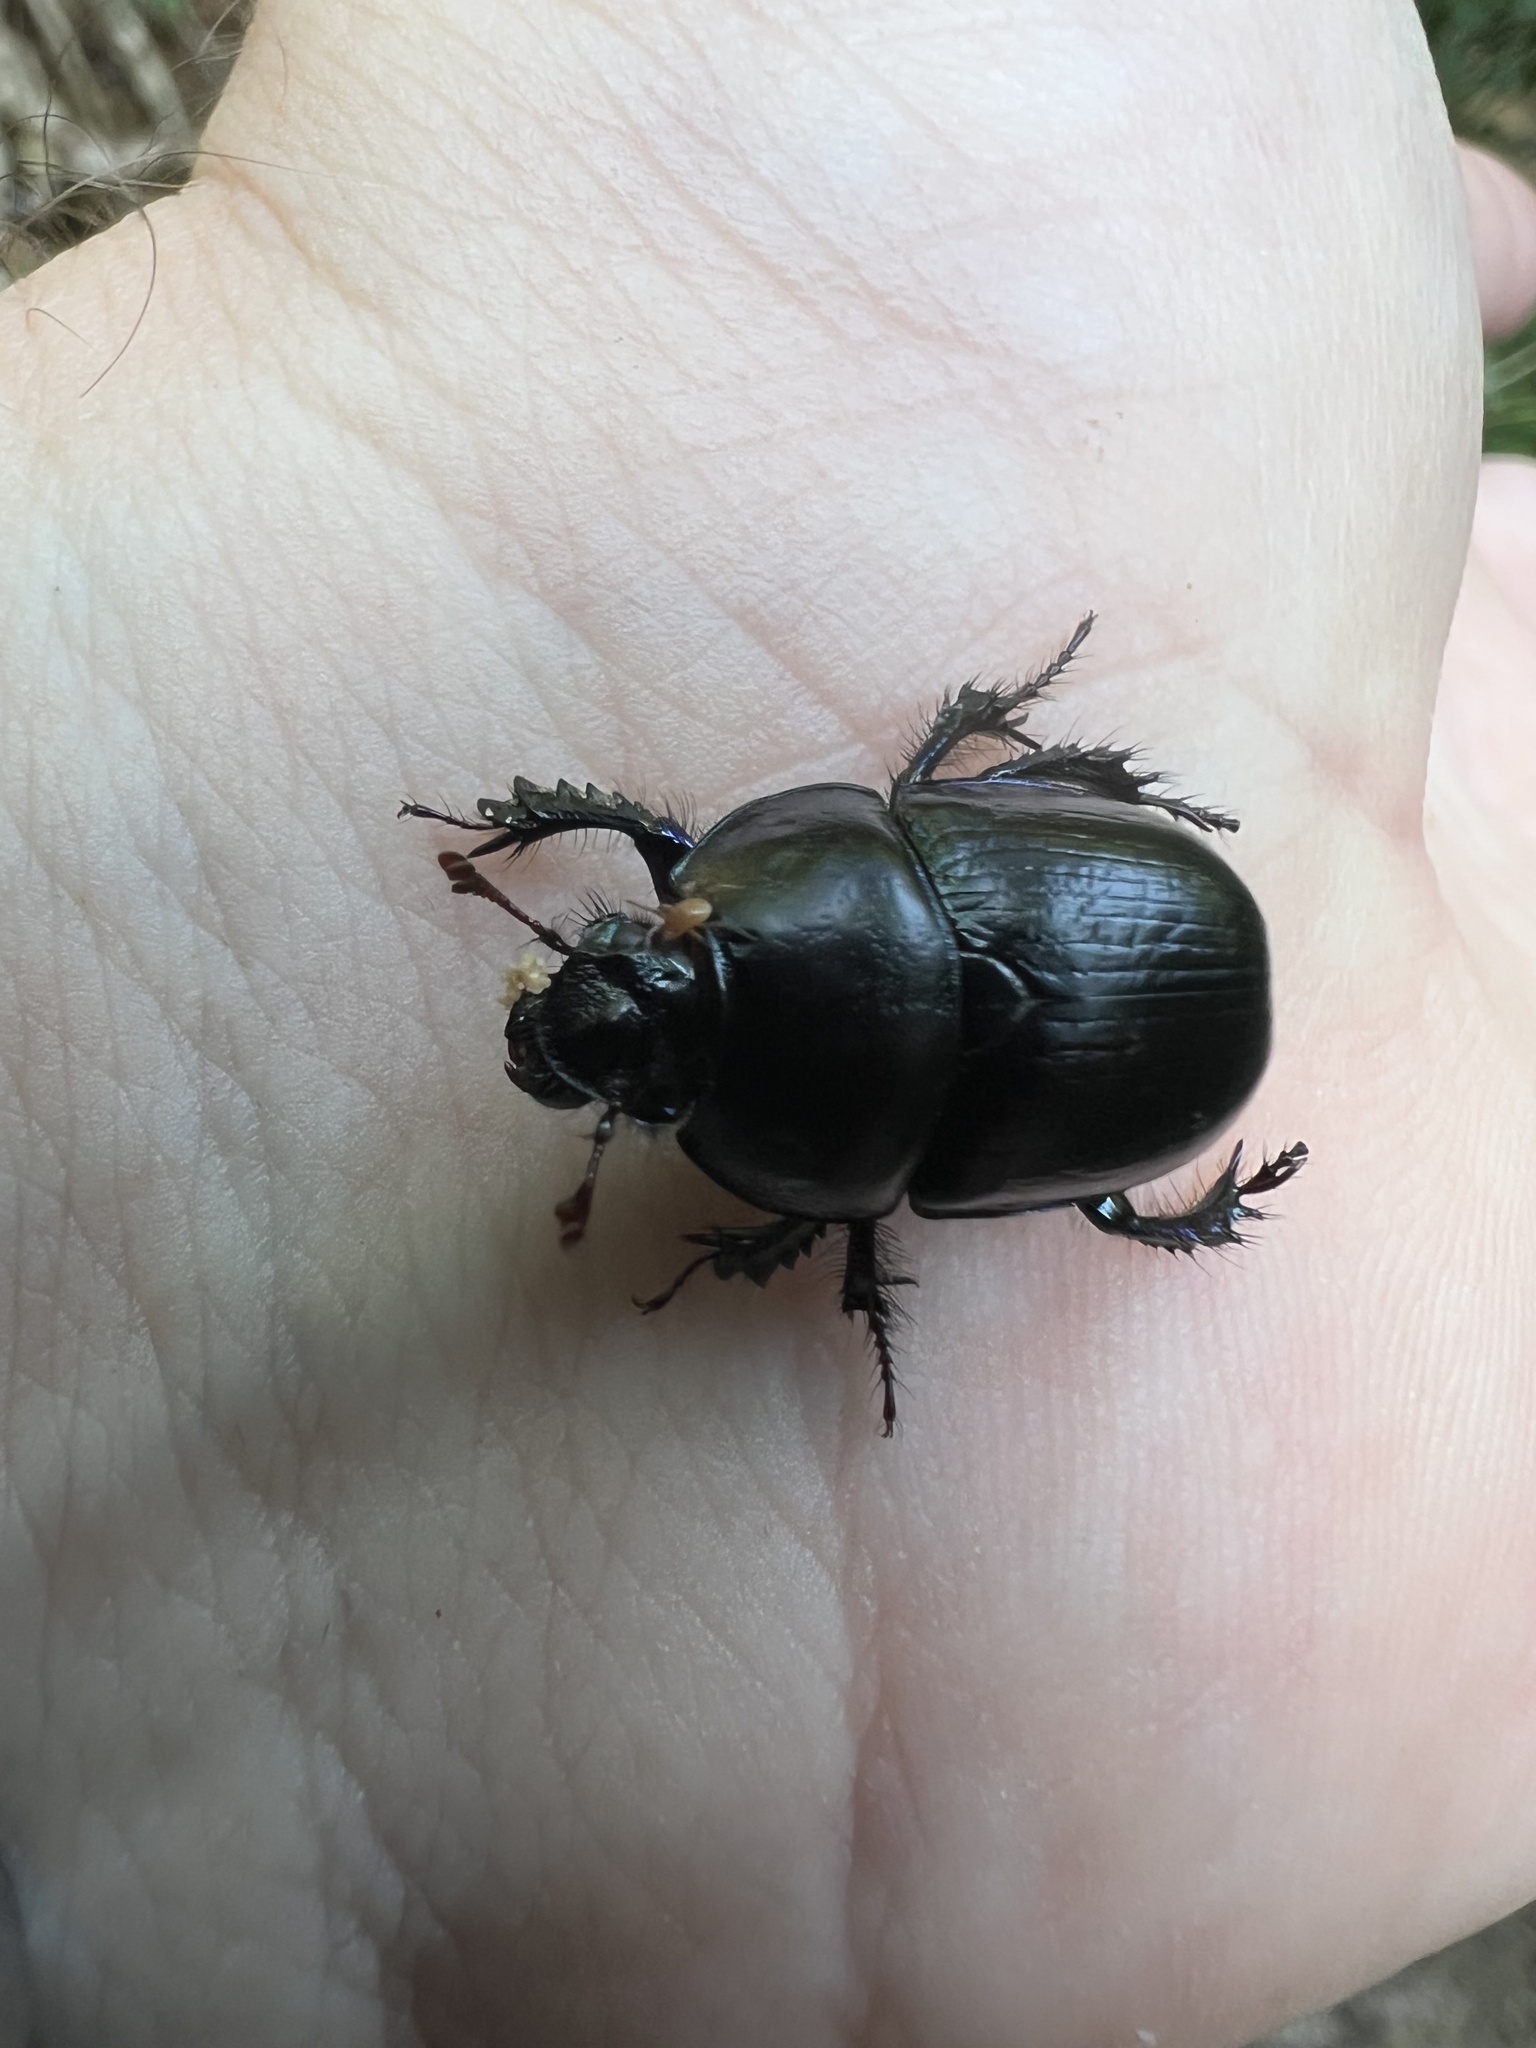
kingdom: Animalia
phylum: Arthropoda
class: Insecta
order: Coleoptera
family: Geotrupidae
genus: Anoplotrupes
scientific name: Anoplotrupes stercorosus
